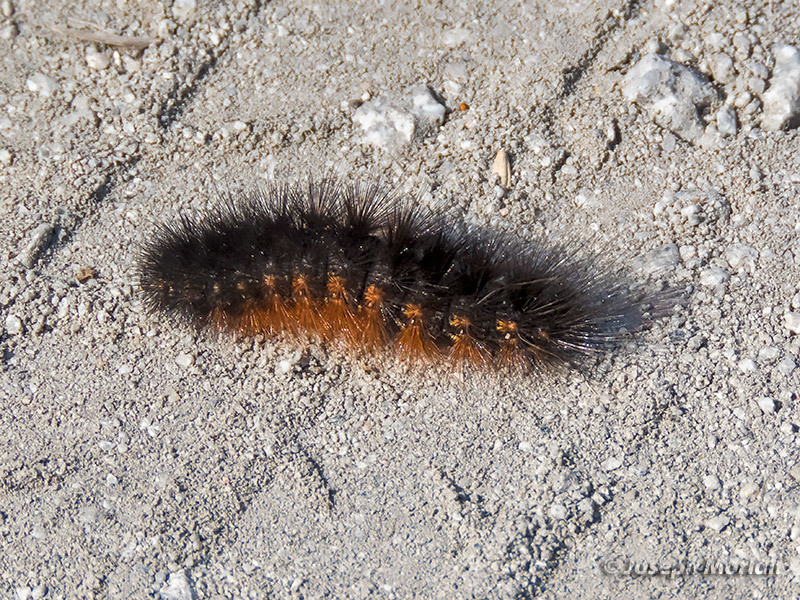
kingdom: Animalia
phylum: Arthropoda
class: Insecta
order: Lepidoptera
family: Erebidae
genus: Estigmene
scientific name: Estigmene acrea
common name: Salt marsh moth
